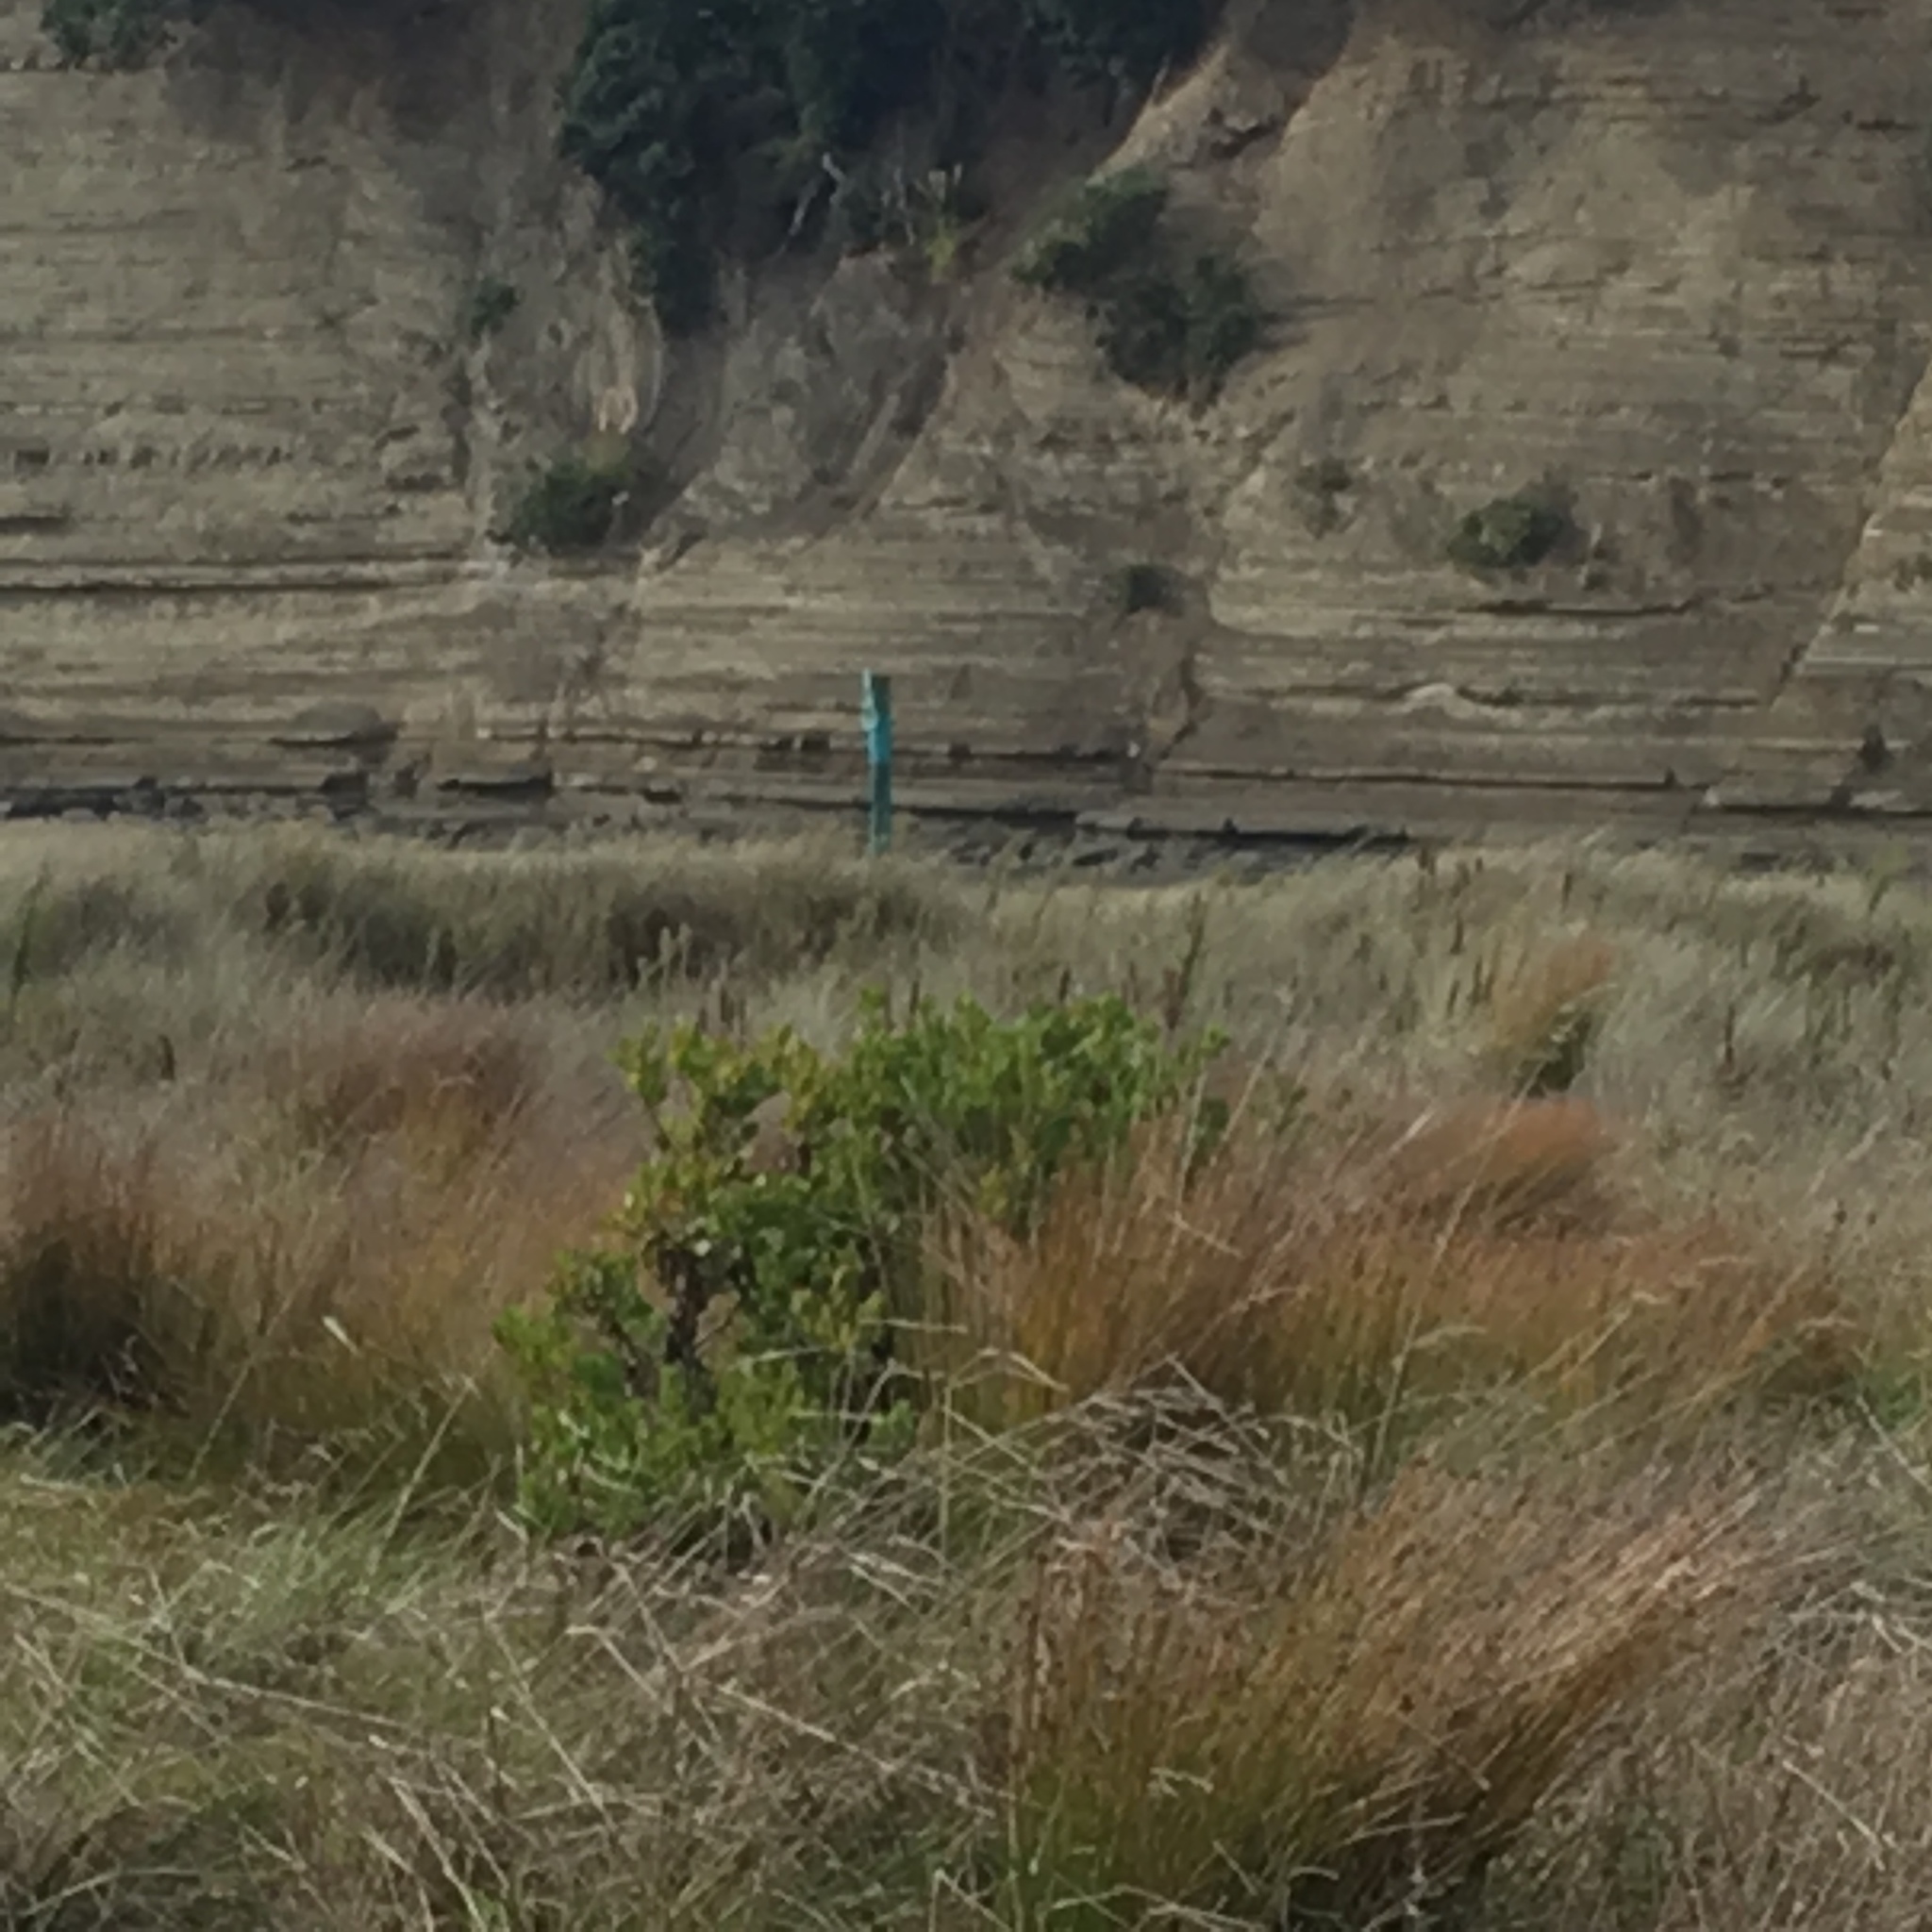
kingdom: Plantae
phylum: Tracheophyta
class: Magnoliopsida
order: Asterales
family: Asteraceae
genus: Osteospermum
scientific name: Osteospermum moniliferum
